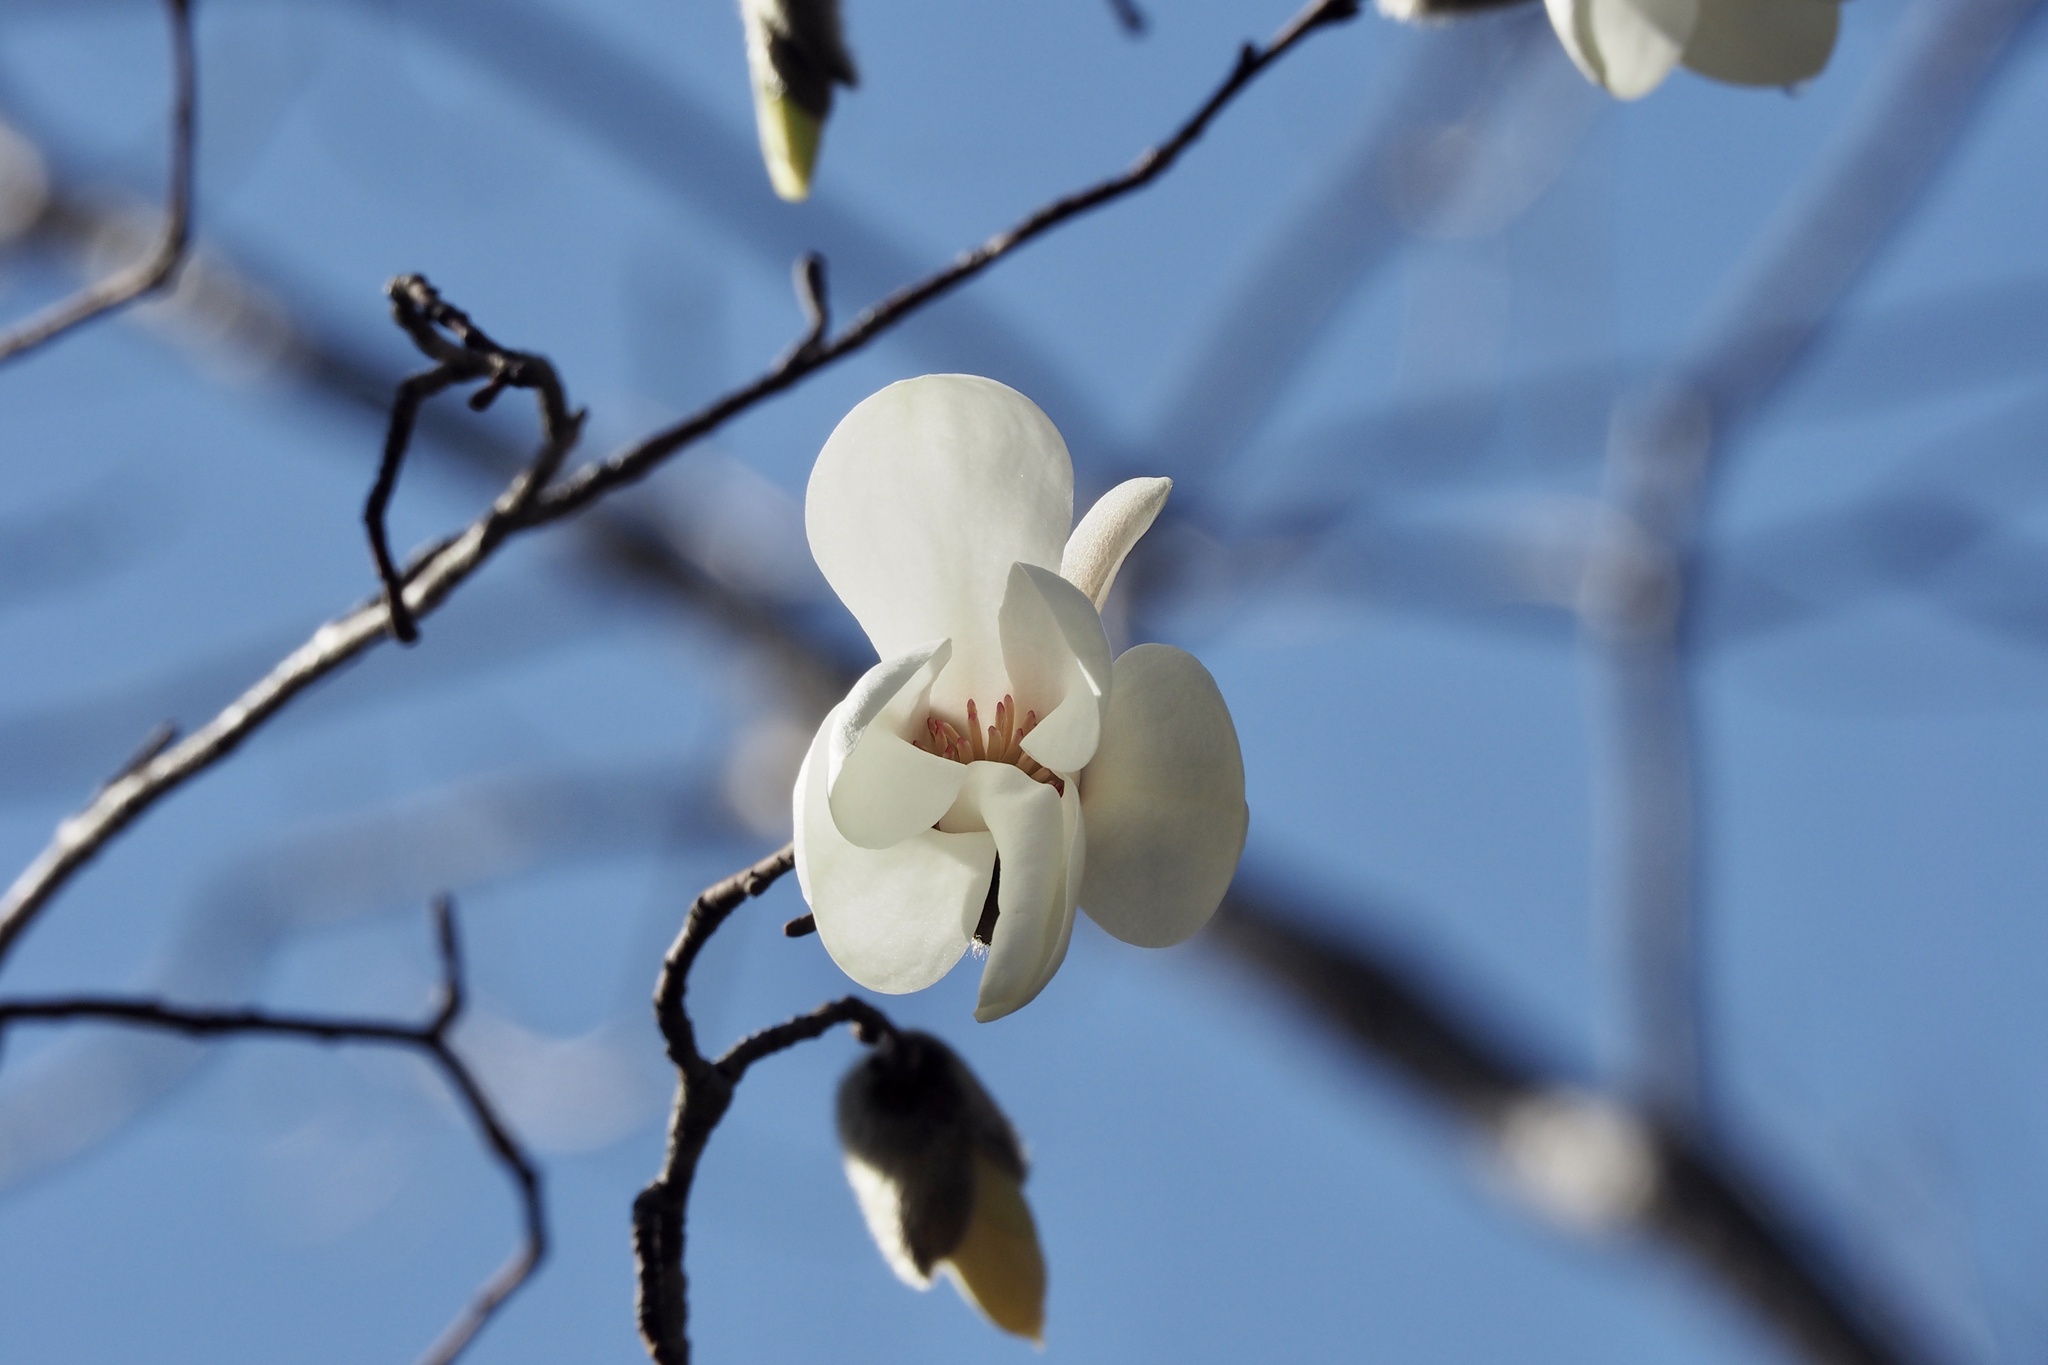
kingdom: Plantae
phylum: Tracheophyta
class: Magnoliopsida
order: Magnoliales
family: Magnoliaceae
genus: Magnolia
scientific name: Magnolia salicifolia
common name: Anise magnolia
